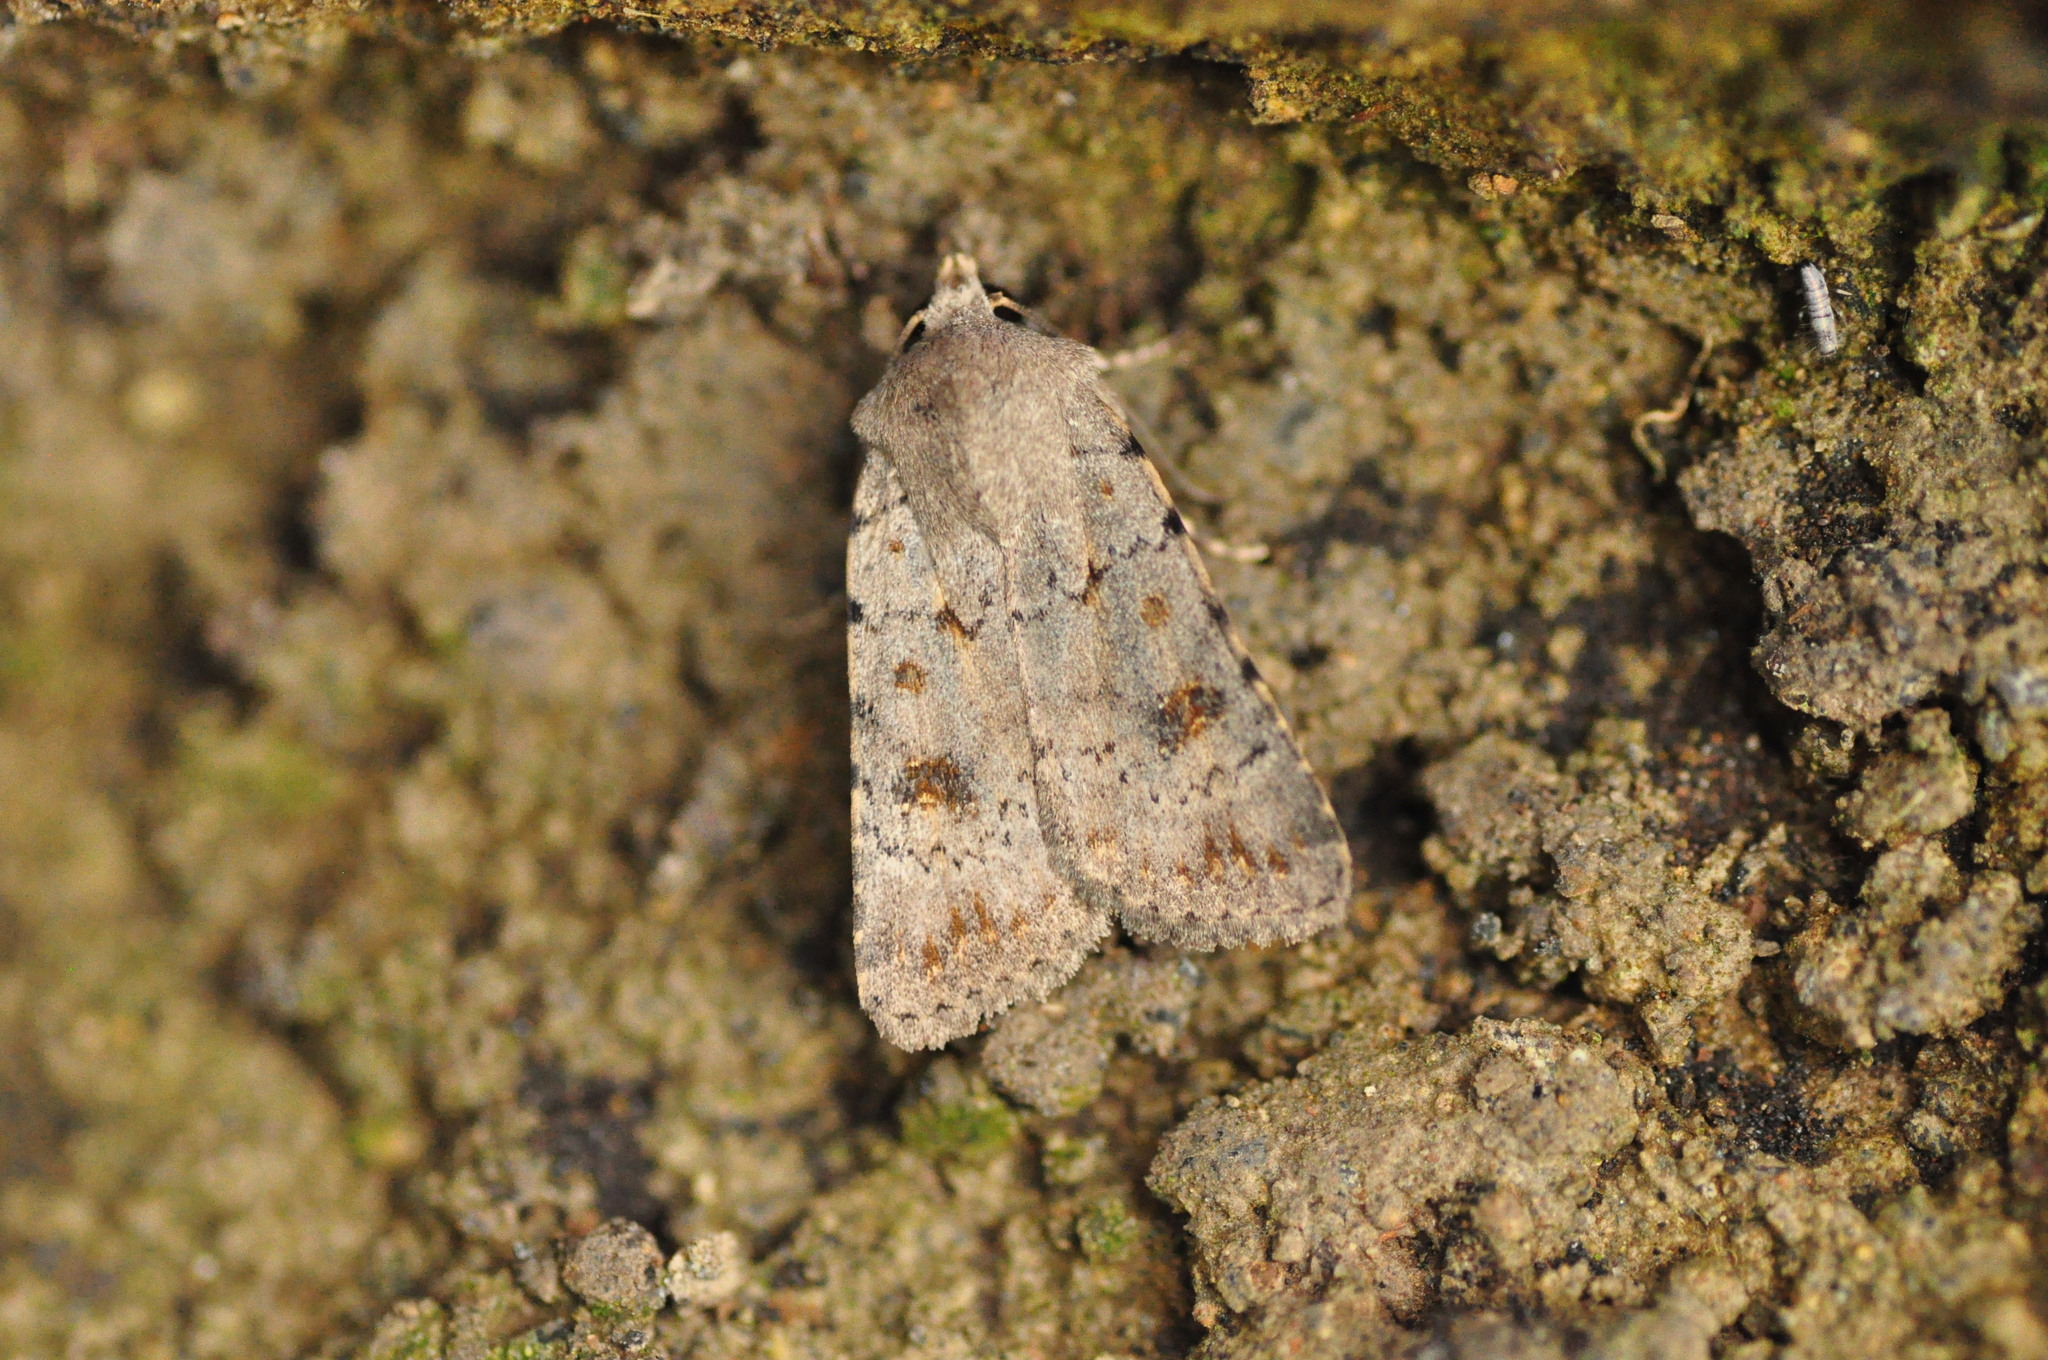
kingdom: Animalia
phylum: Arthropoda
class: Insecta
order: Lepidoptera
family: Noctuidae
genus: Caradrina
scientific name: Caradrina rebeli
